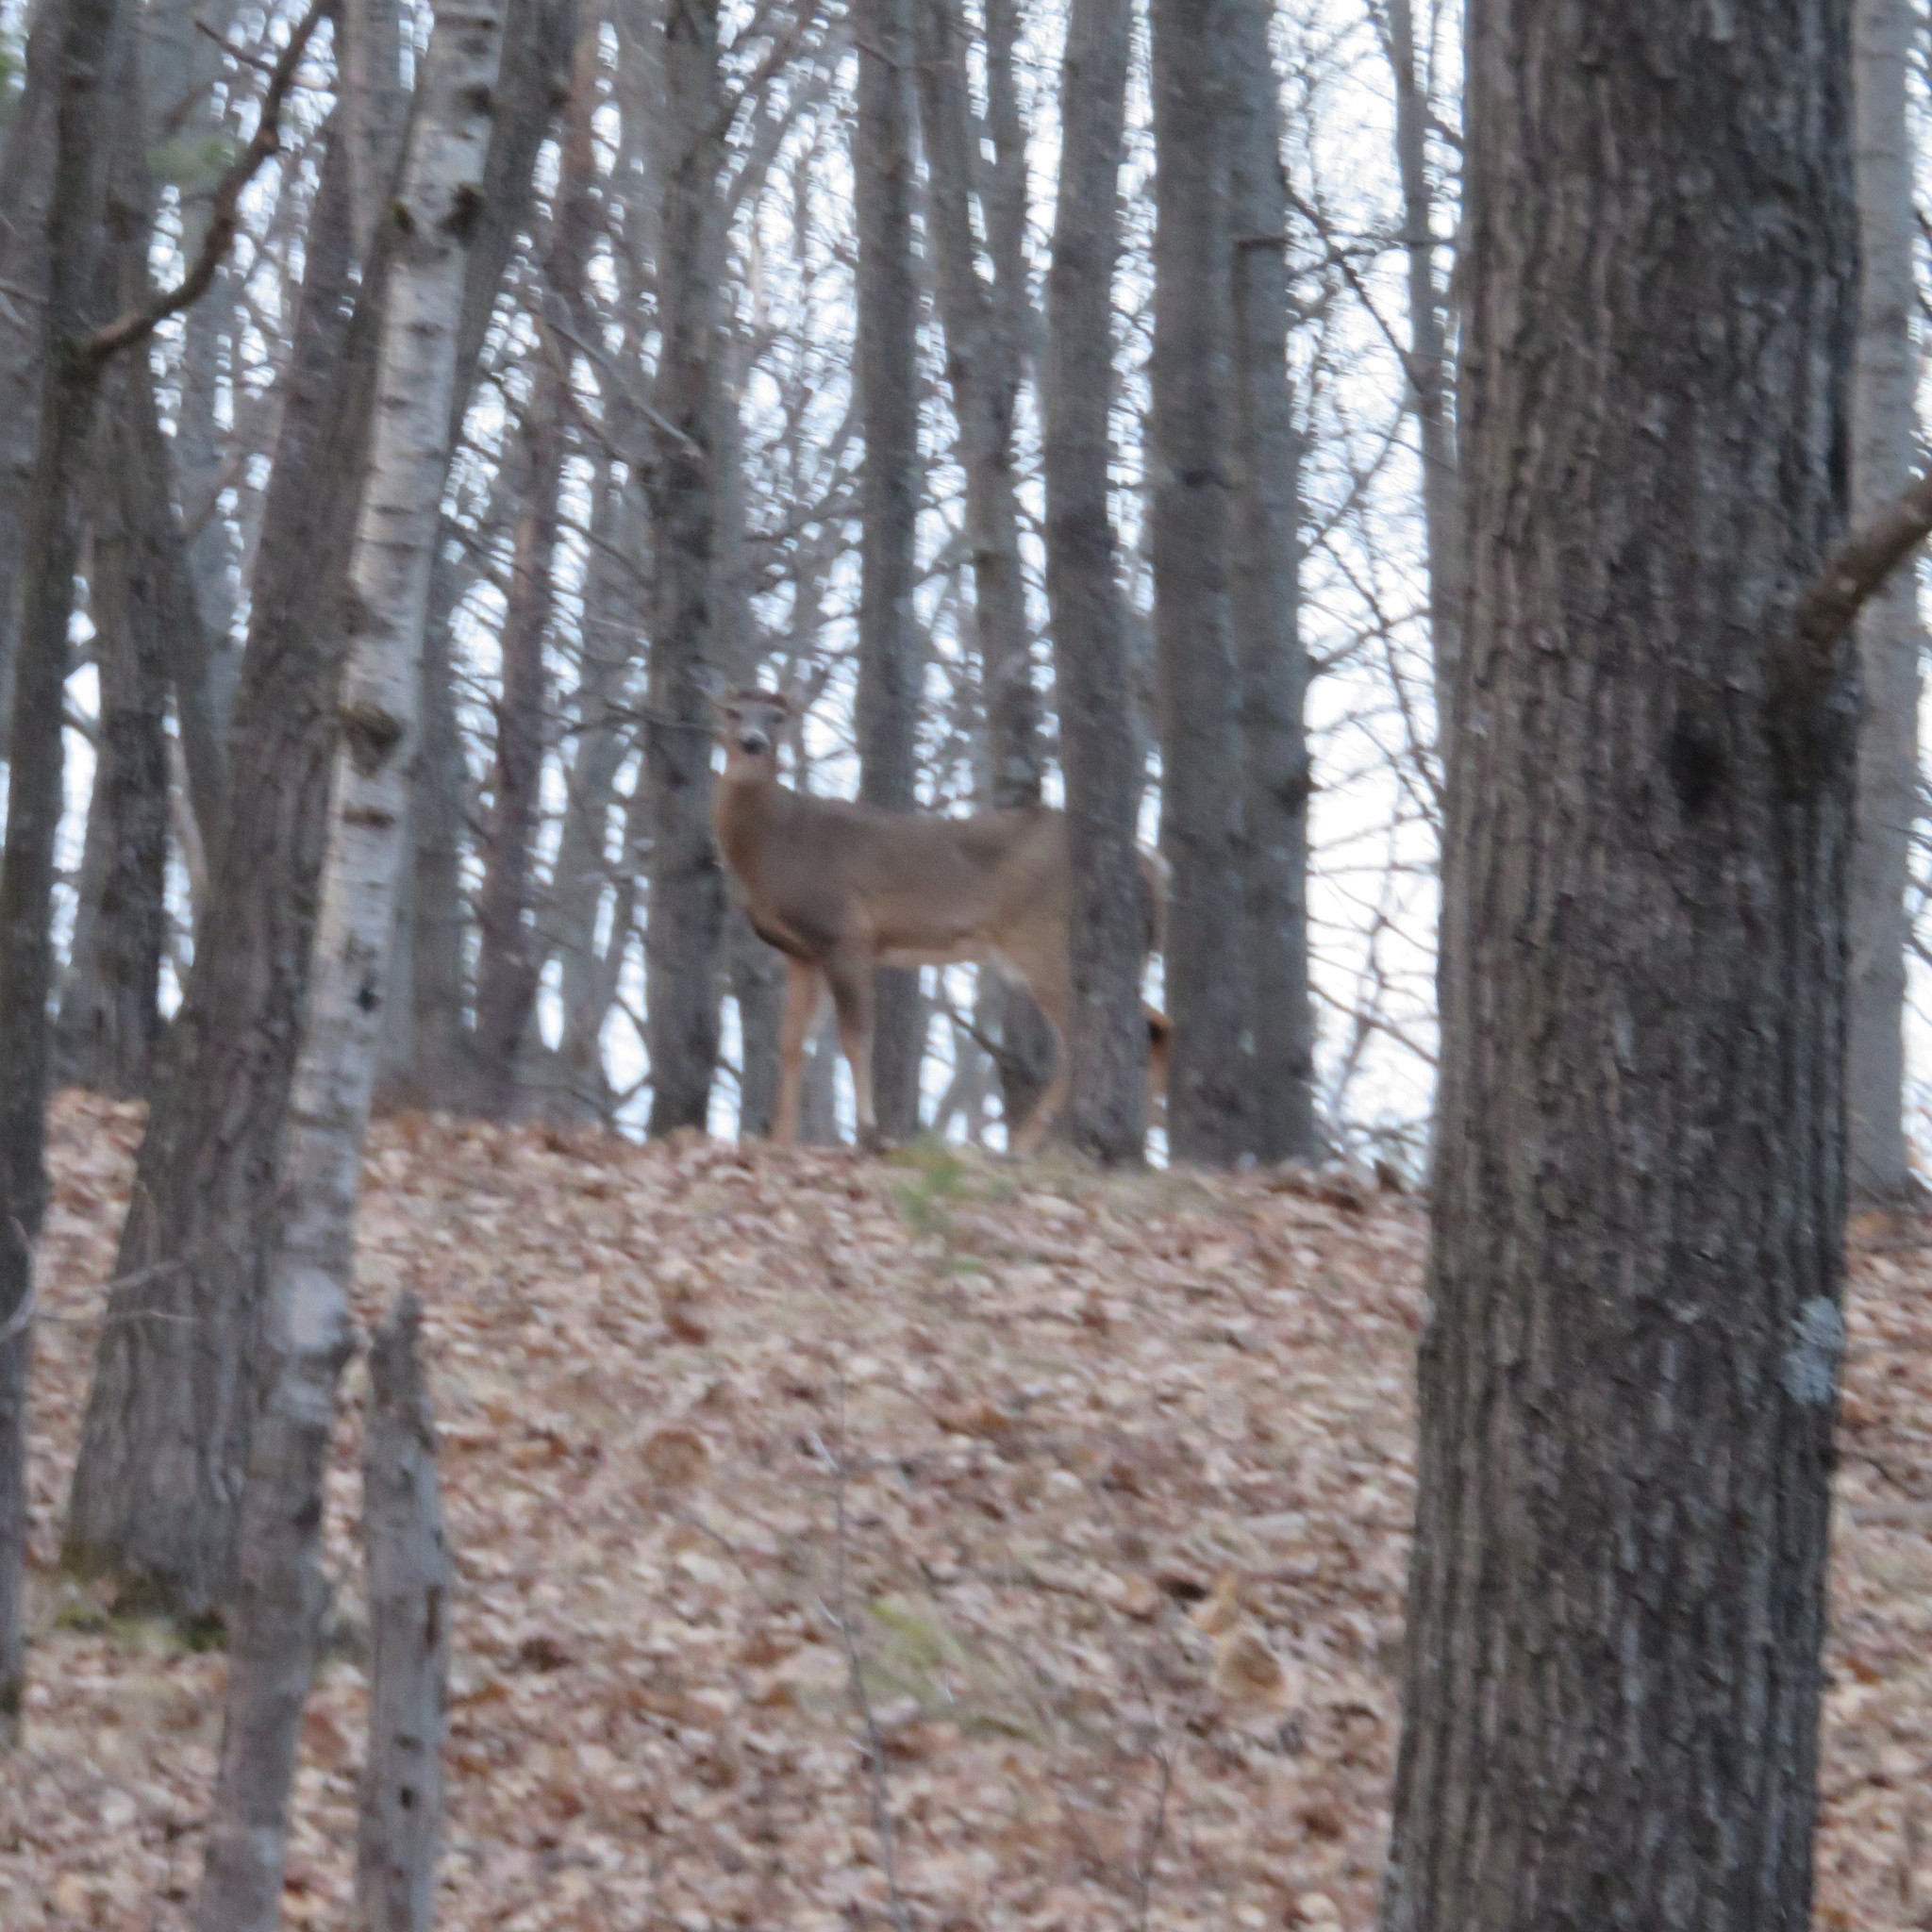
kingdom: Animalia
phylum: Chordata
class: Mammalia
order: Artiodactyla
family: Cervidae
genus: Odocoileus
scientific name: Odocoileus virginianus
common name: White-tailed deer
